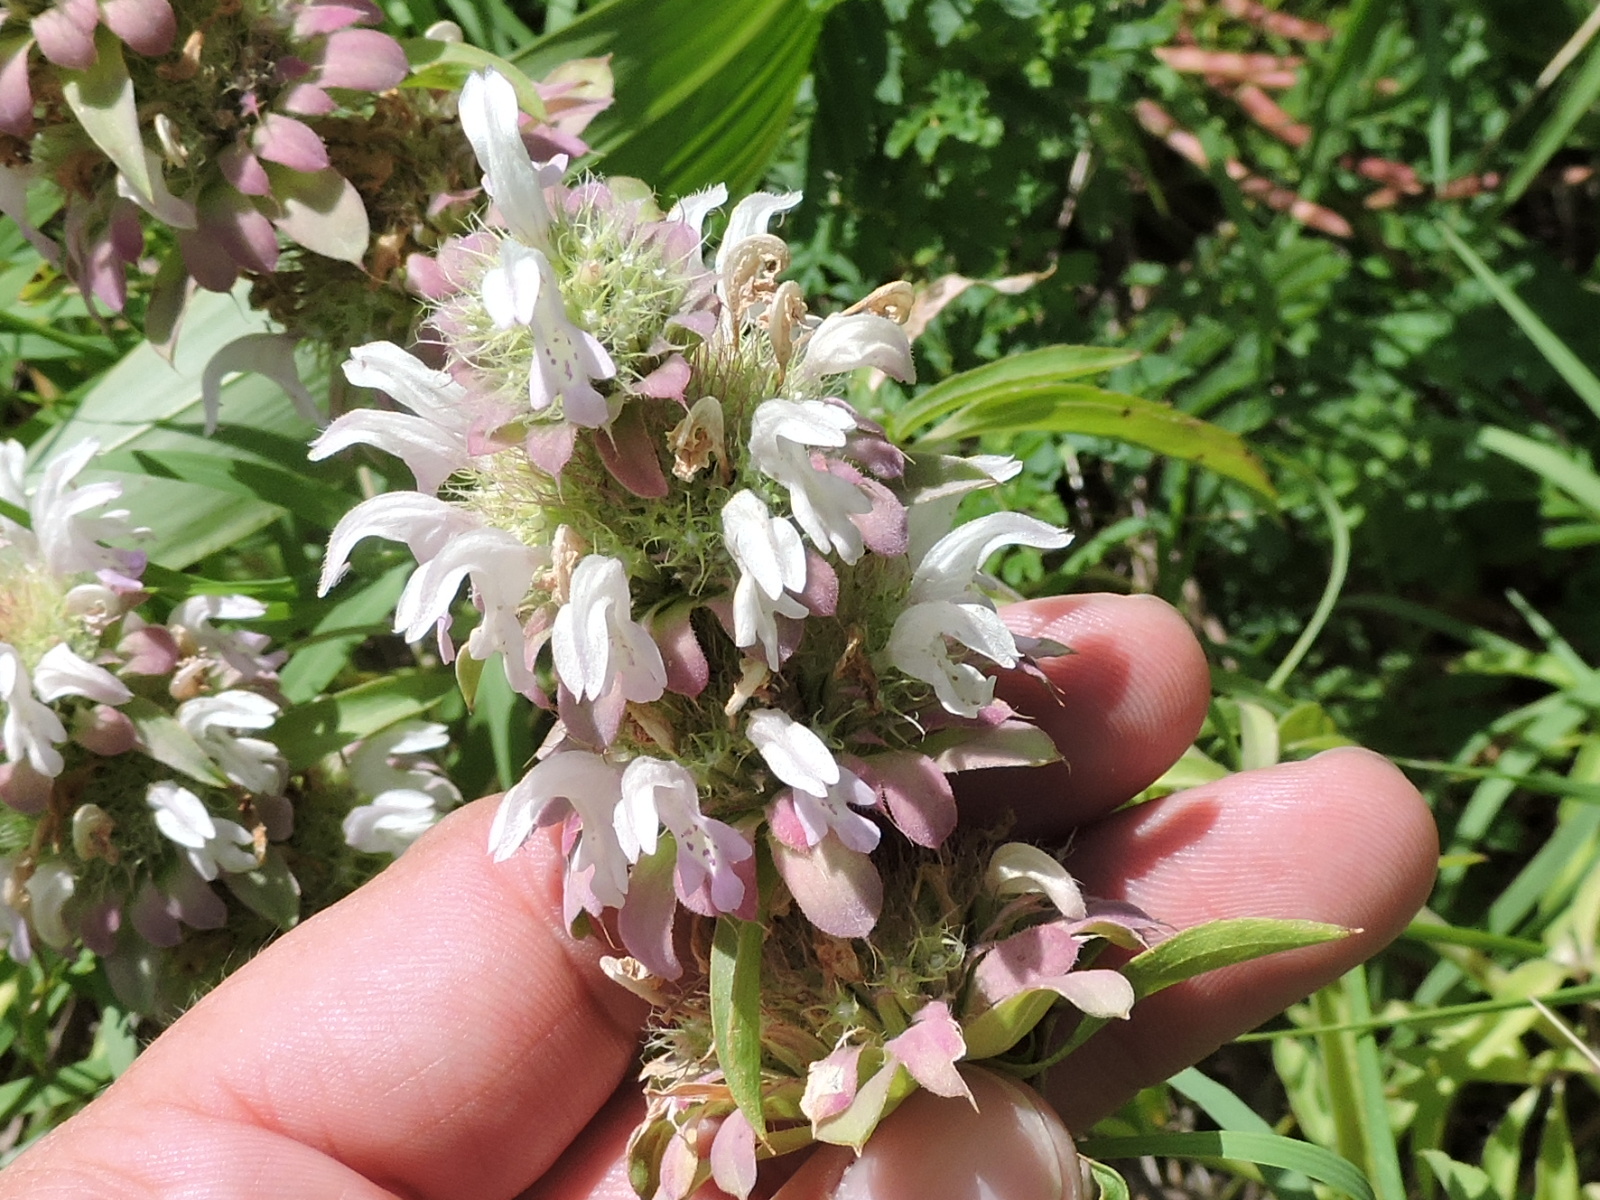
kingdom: Plantae
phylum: Tracheophyta
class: Magnoliopsida
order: Lamiales
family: Lamiaceae
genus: Monarda
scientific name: Monarda citriodora
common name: Lemon beebalm
